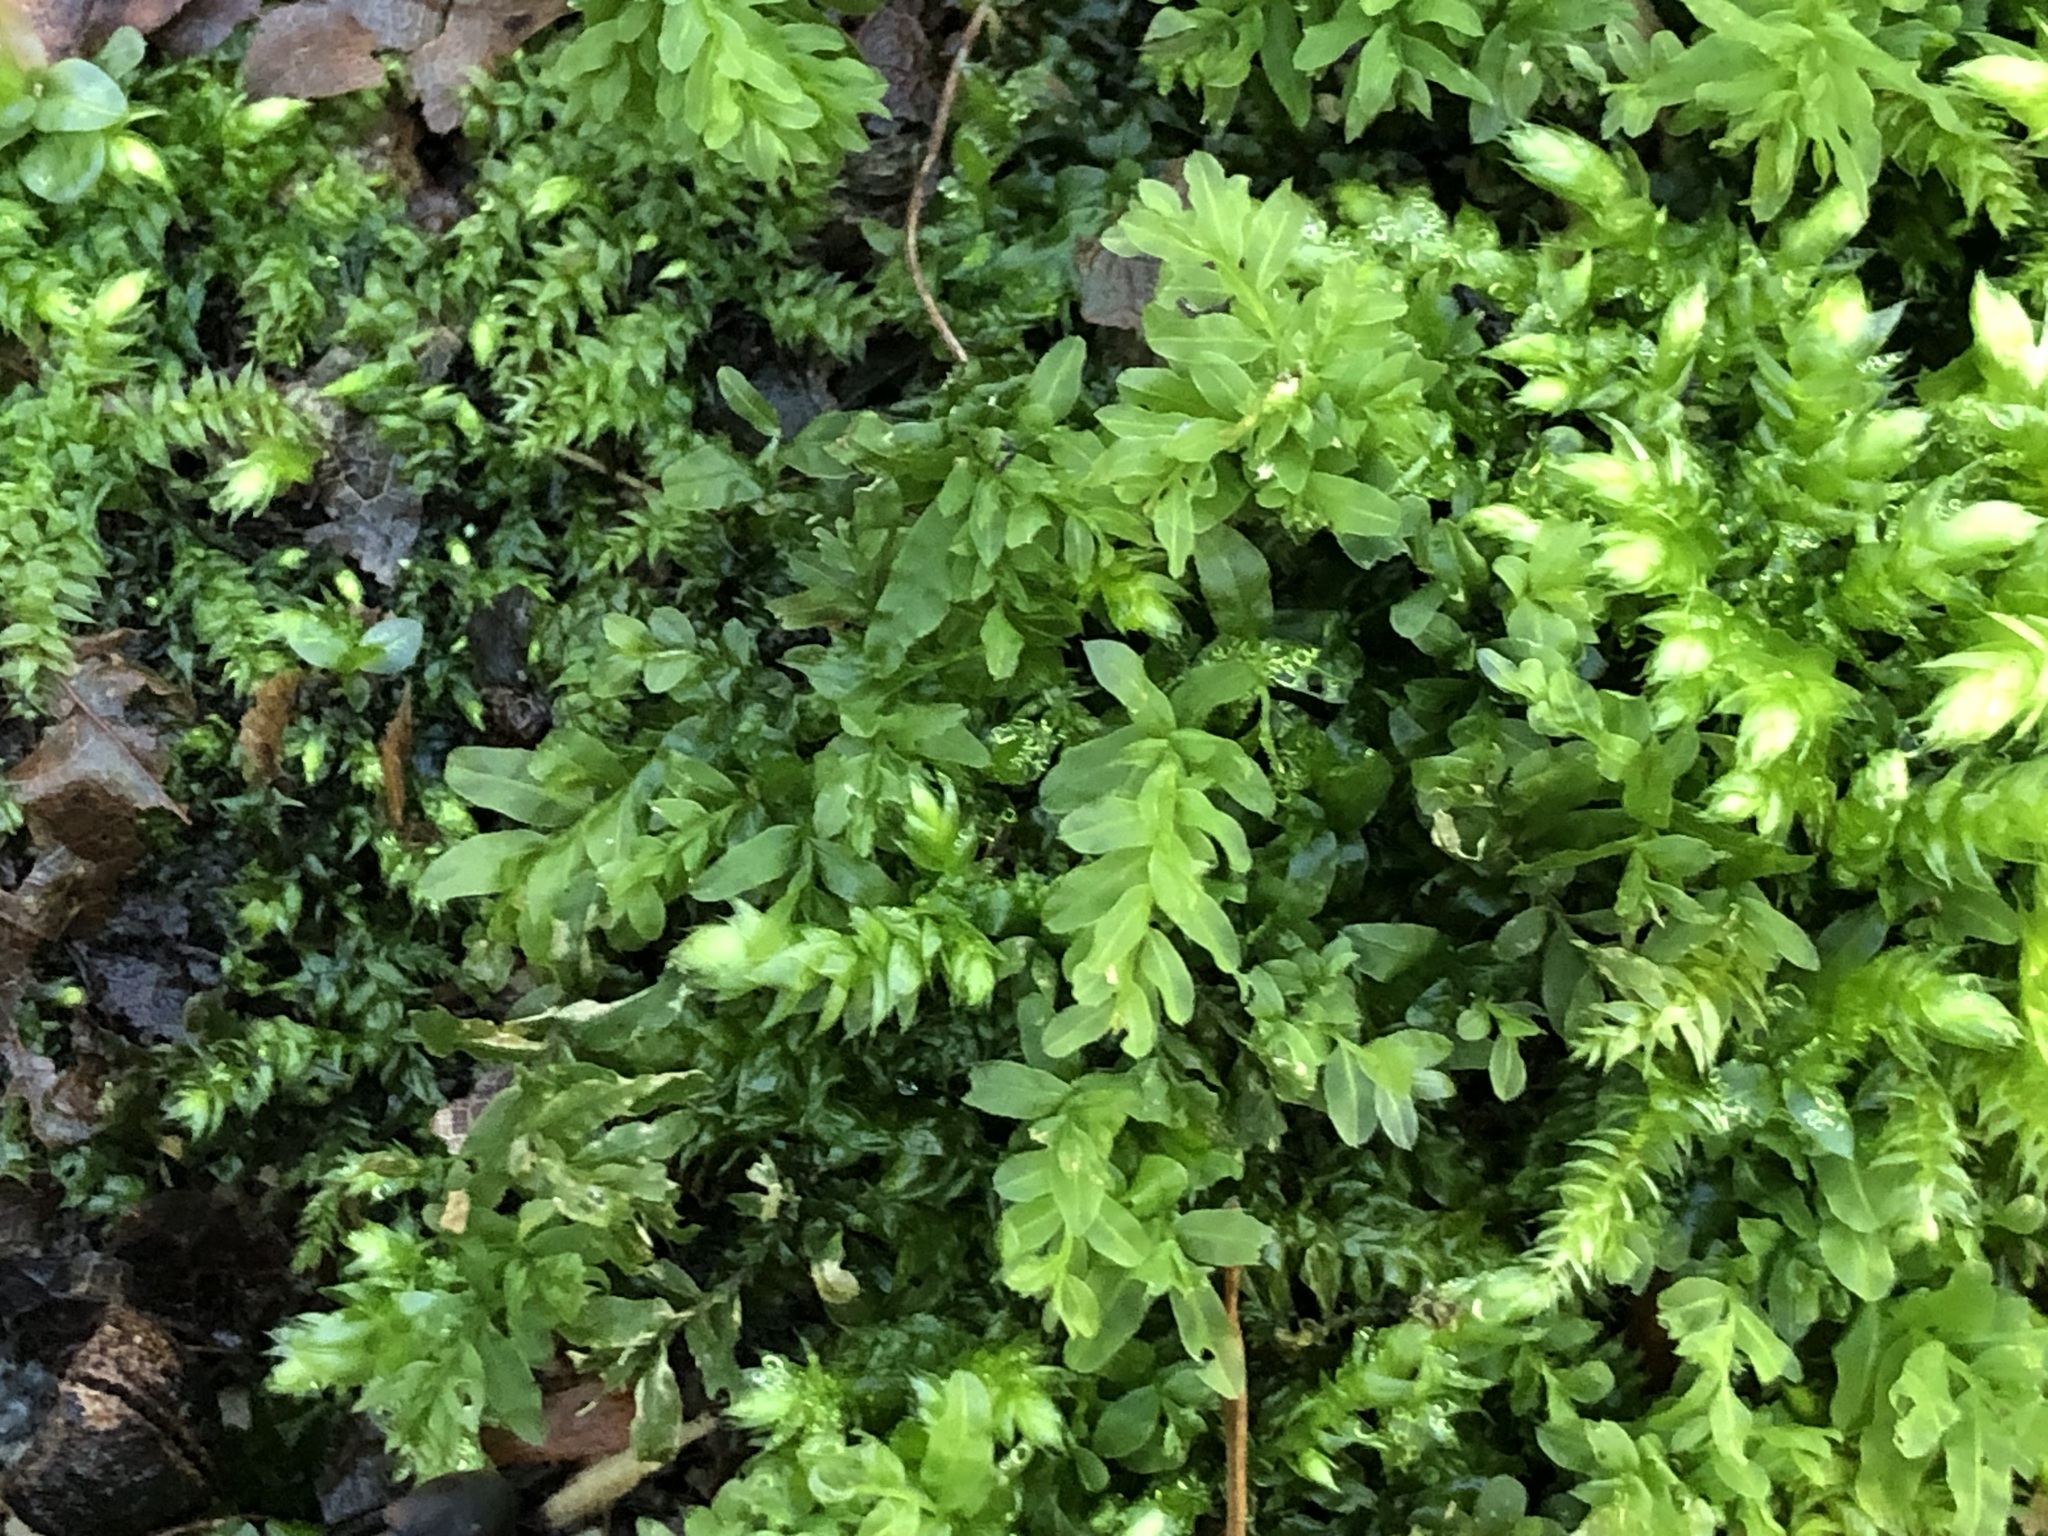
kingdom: Plantae
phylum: Bryophyta
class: Bryopsida
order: Bryales
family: Mniaceae
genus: Plagiomnium
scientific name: Plagiomnium undulatum
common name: Hart's-tongue thyme-moss
